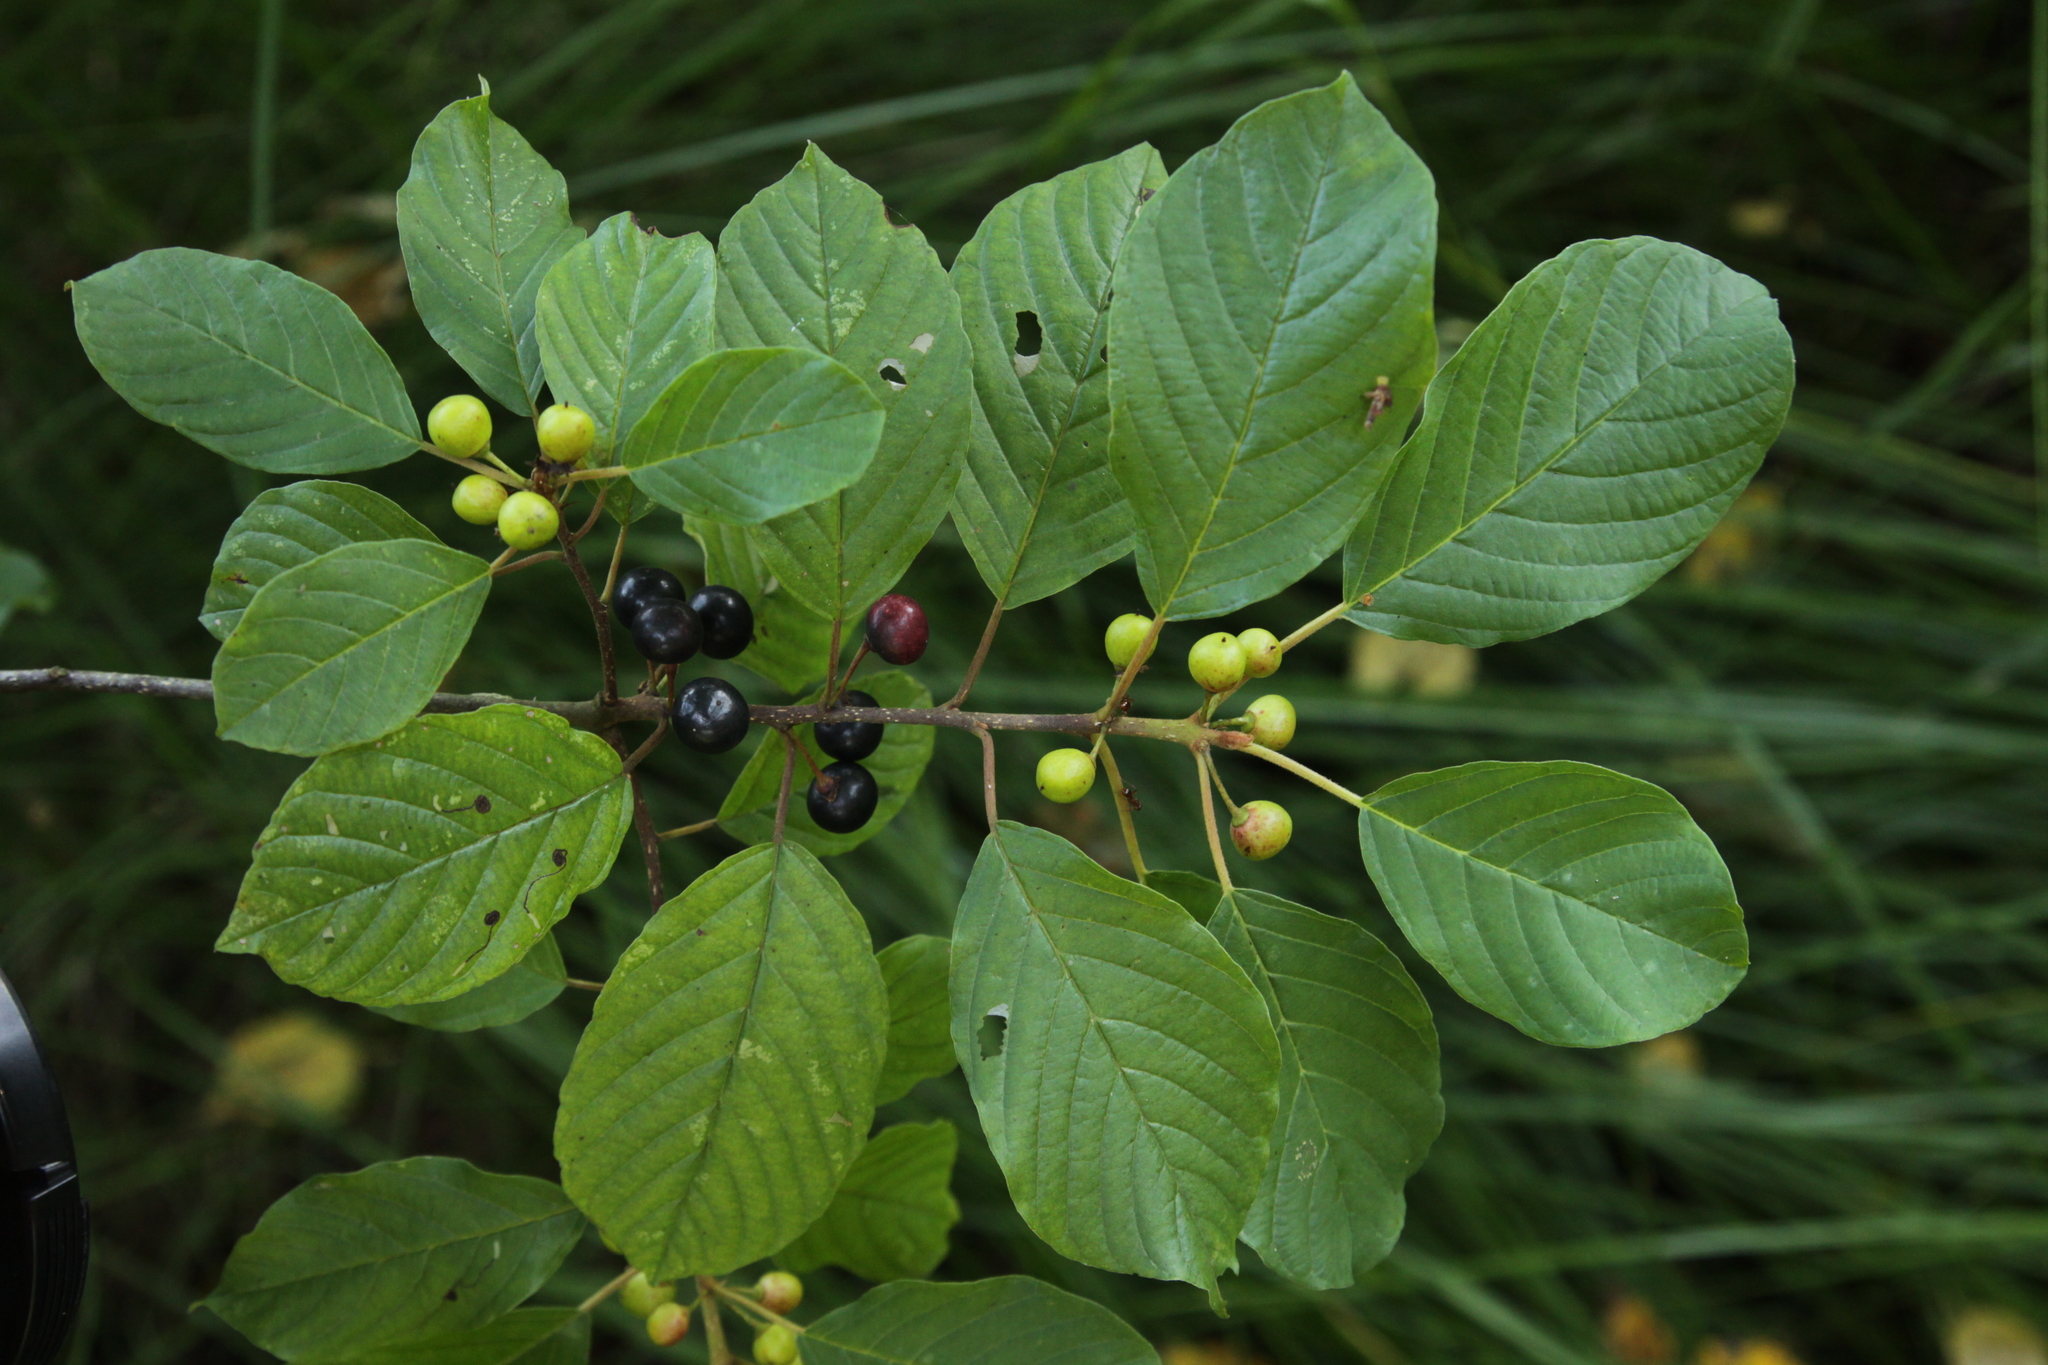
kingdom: Plantae
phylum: Tracheophyta
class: Magnoliopsida
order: Rosales
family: Rhamnaceae
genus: Frangula
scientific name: Frangula alnus
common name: Alder buckthorn
